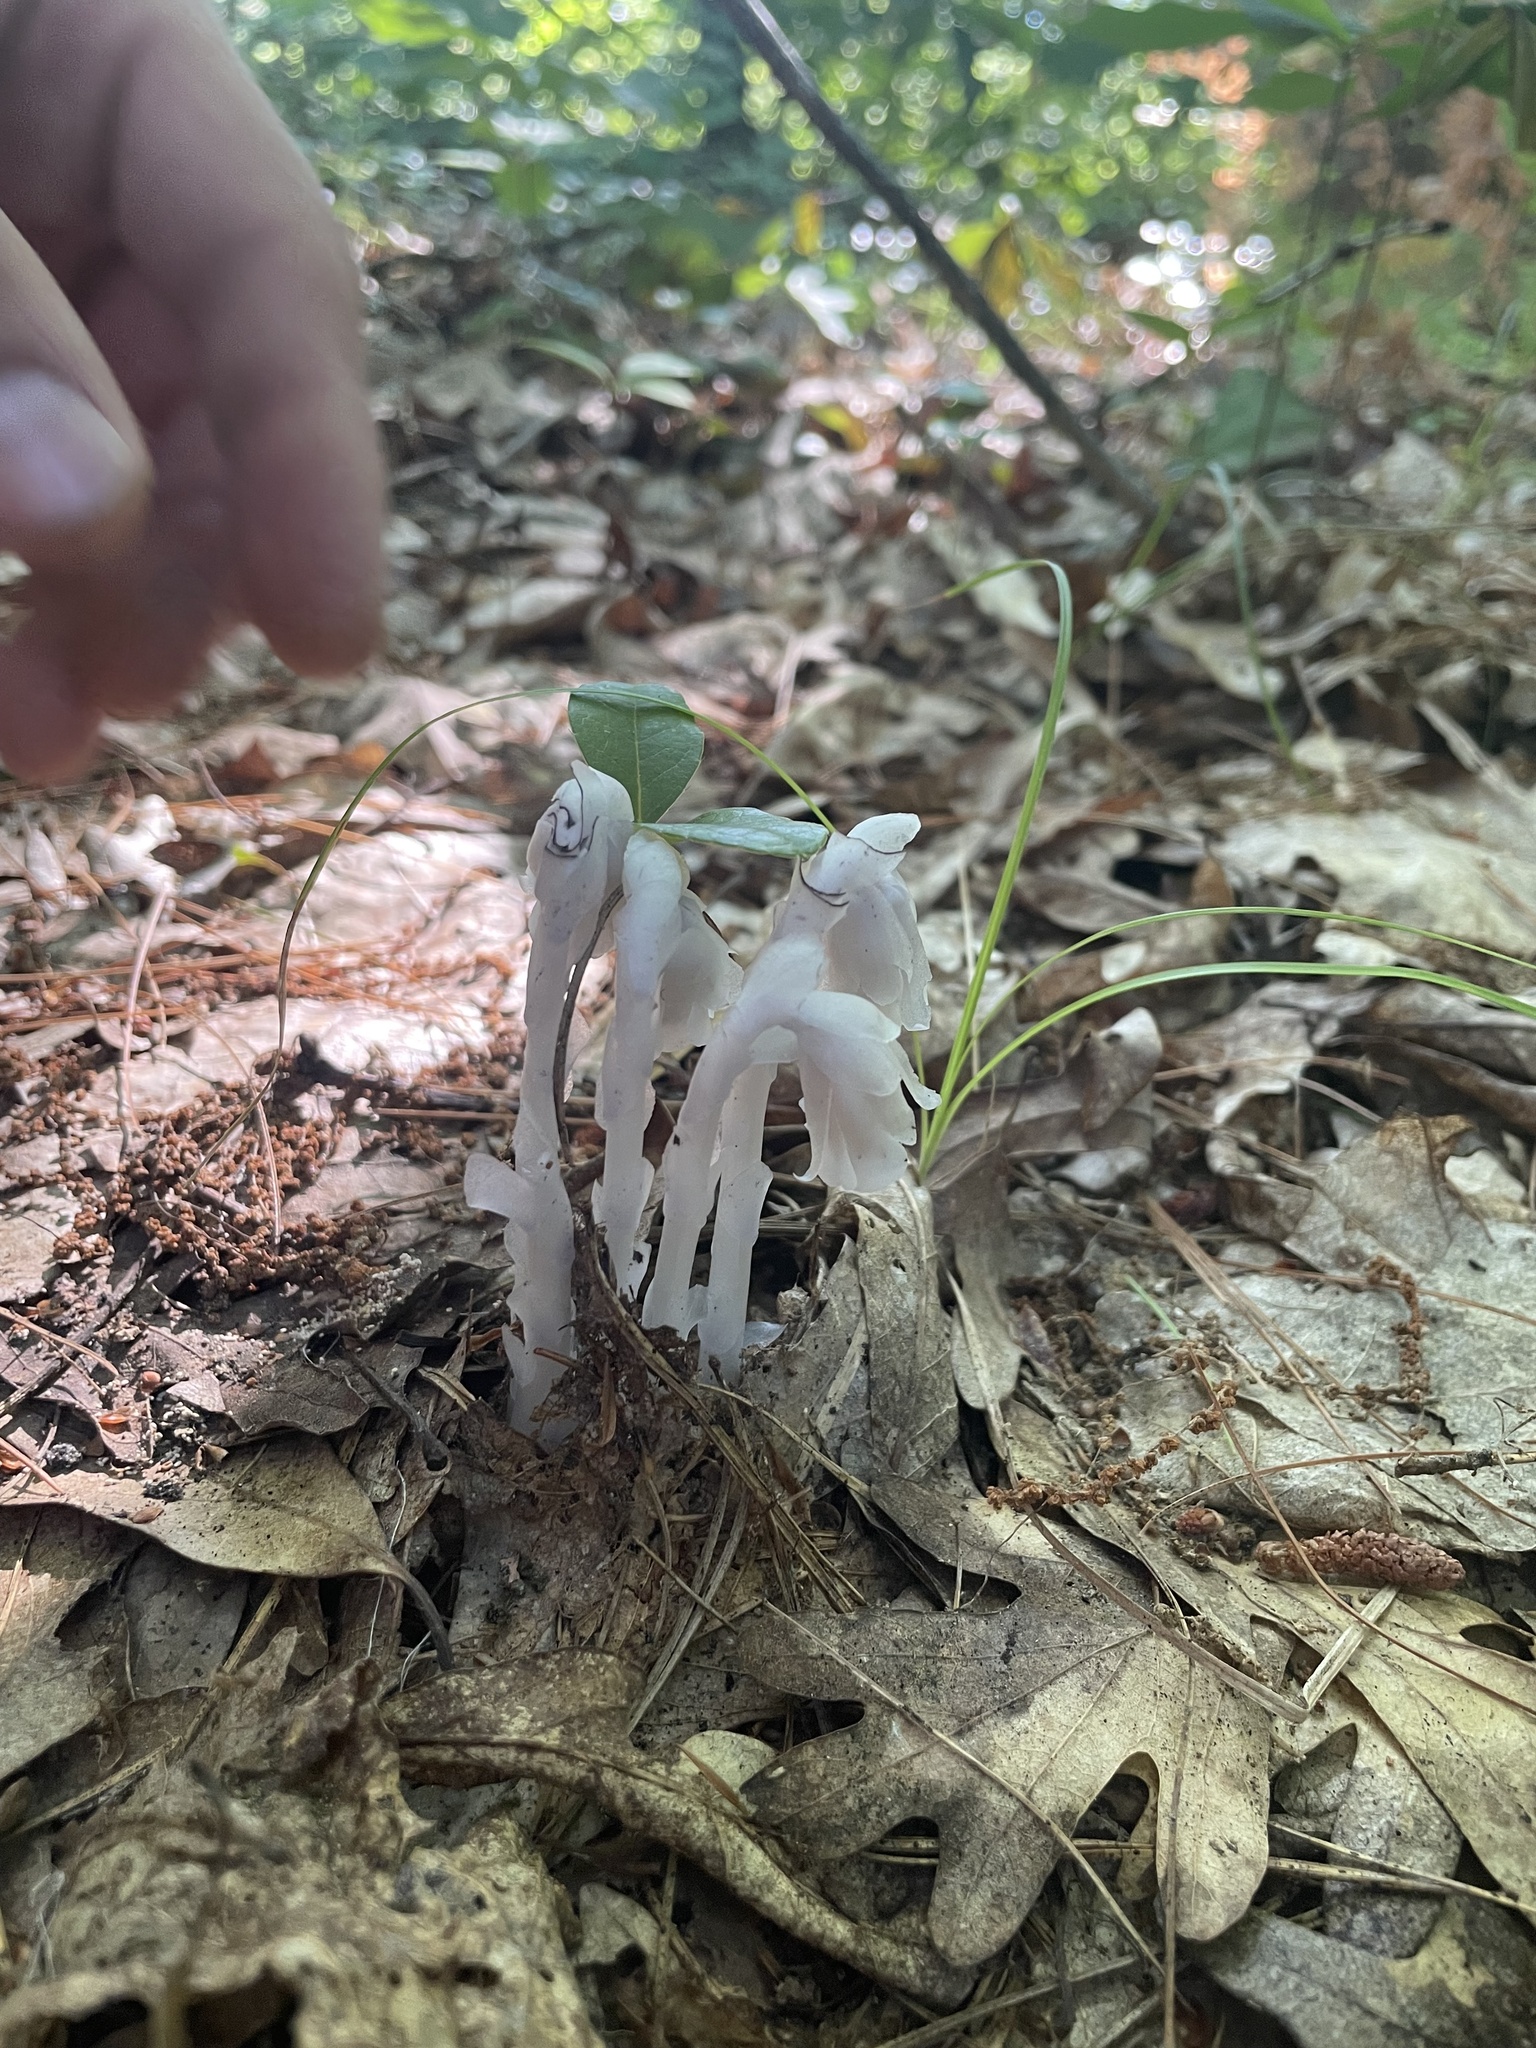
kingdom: Plantae
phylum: Tracheophyta
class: Magnoliopsida
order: Ericales
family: Ericaceae
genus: Monotropa
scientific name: Monotropa uniflora
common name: Convulsion root
